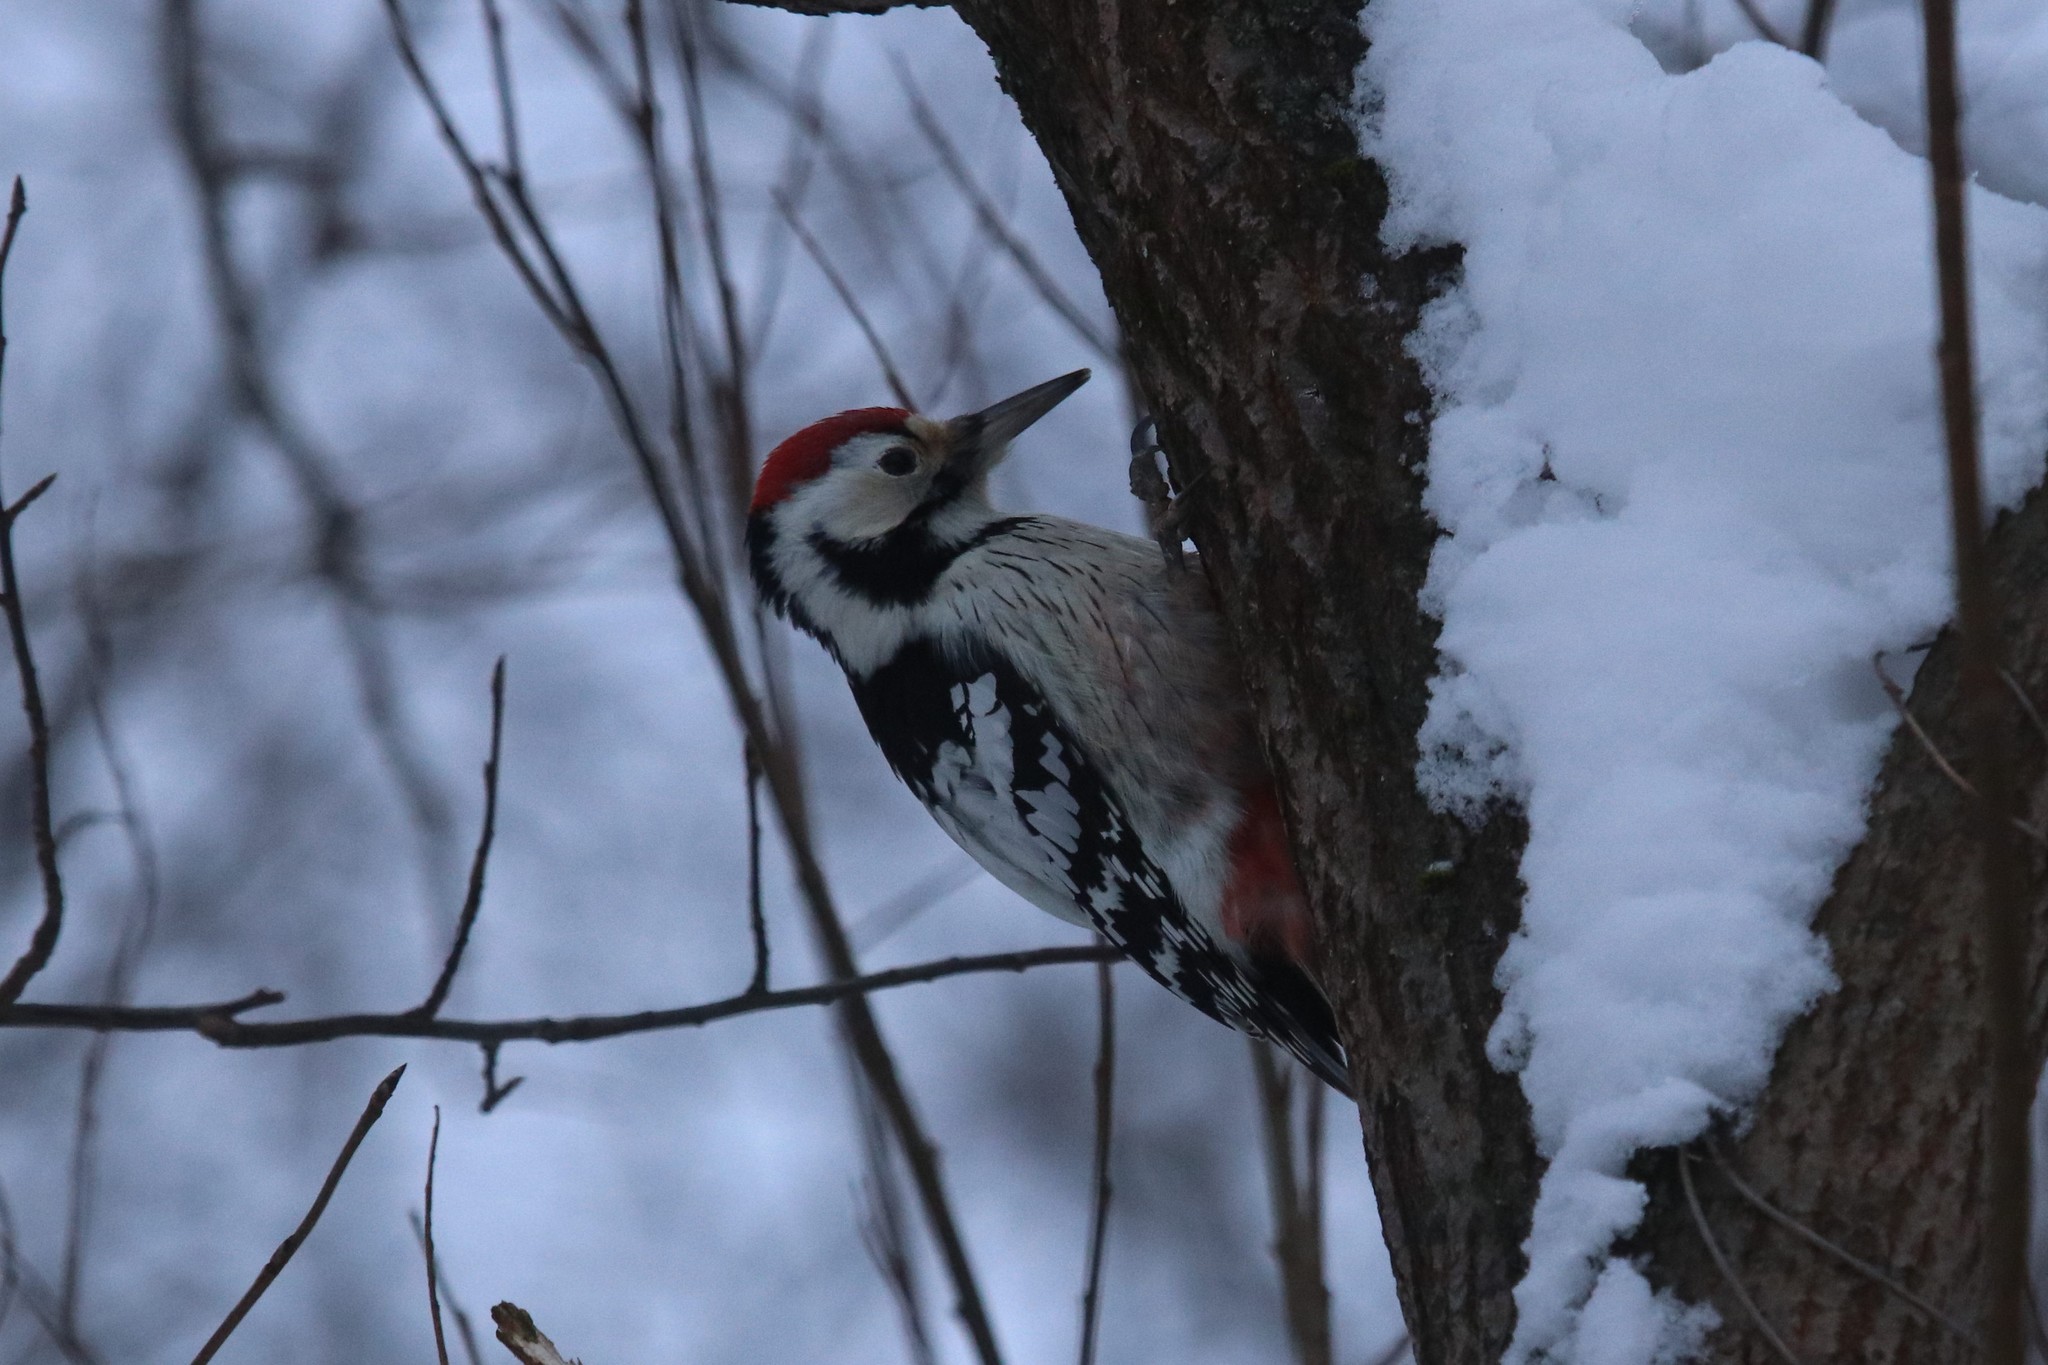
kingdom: Animalia
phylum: Chordata
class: Aves
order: Piciformes
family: Picidae
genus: Dendrocopos
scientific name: Dendrocopos leucotos
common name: White-backed woodpecker
